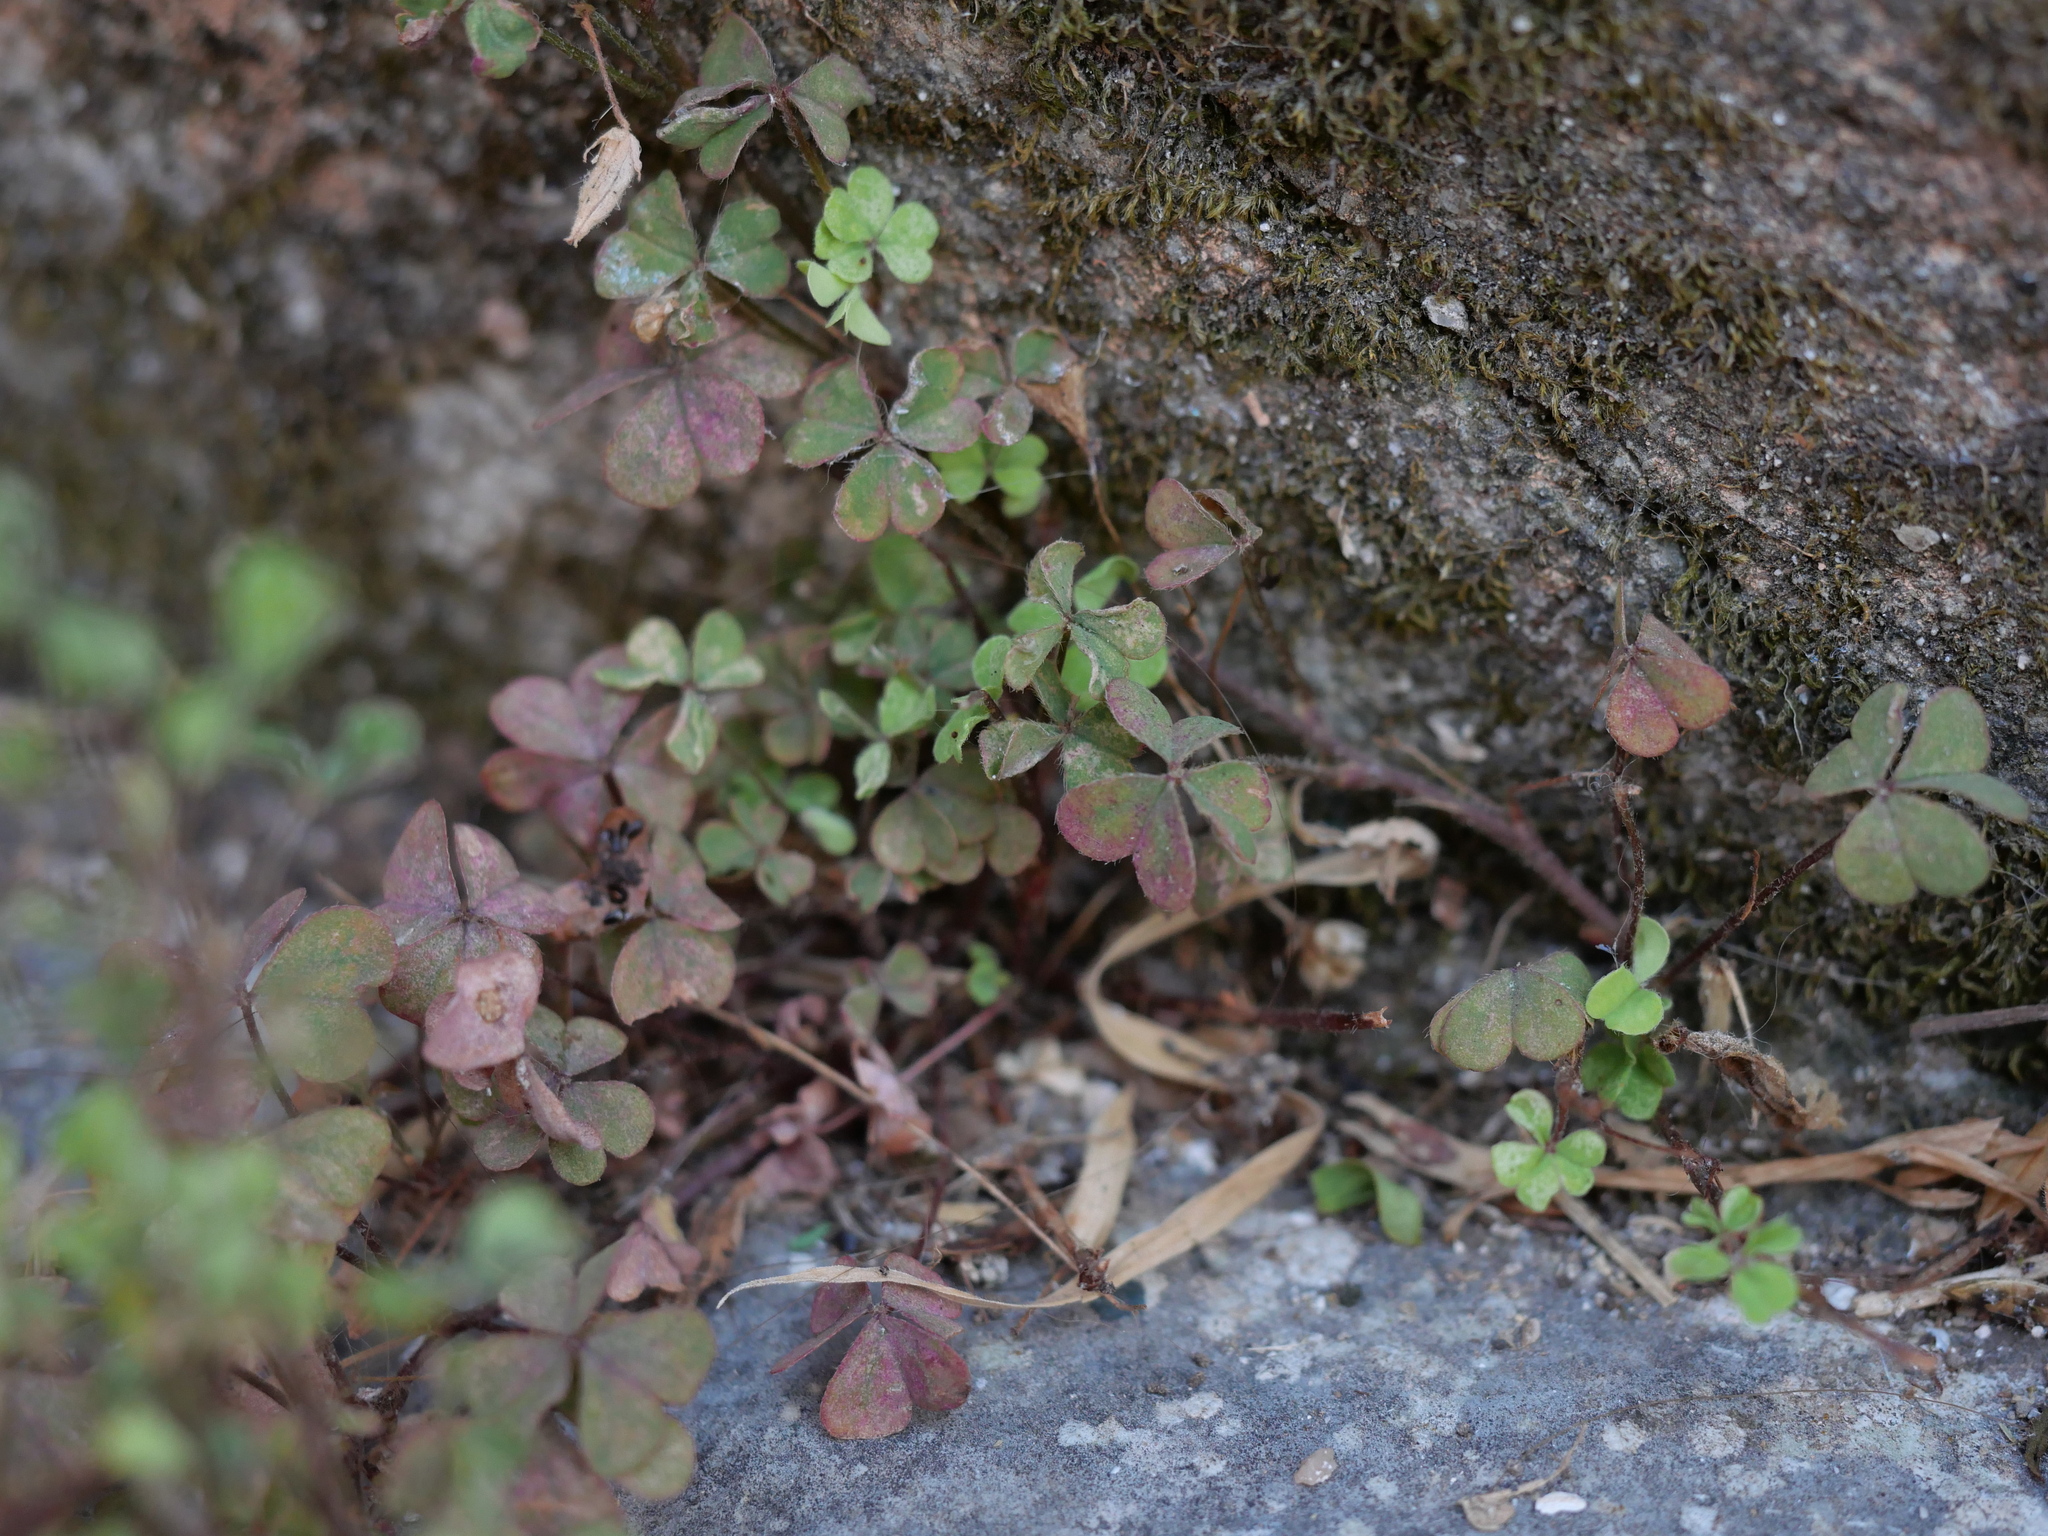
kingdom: Plantae
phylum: Tracheophyta
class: Magnoliopsida
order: Oxalidales
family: Oxalidaceae
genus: Oxalis
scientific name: Oxalis corniculata
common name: Procumbent yellow-sorrel
